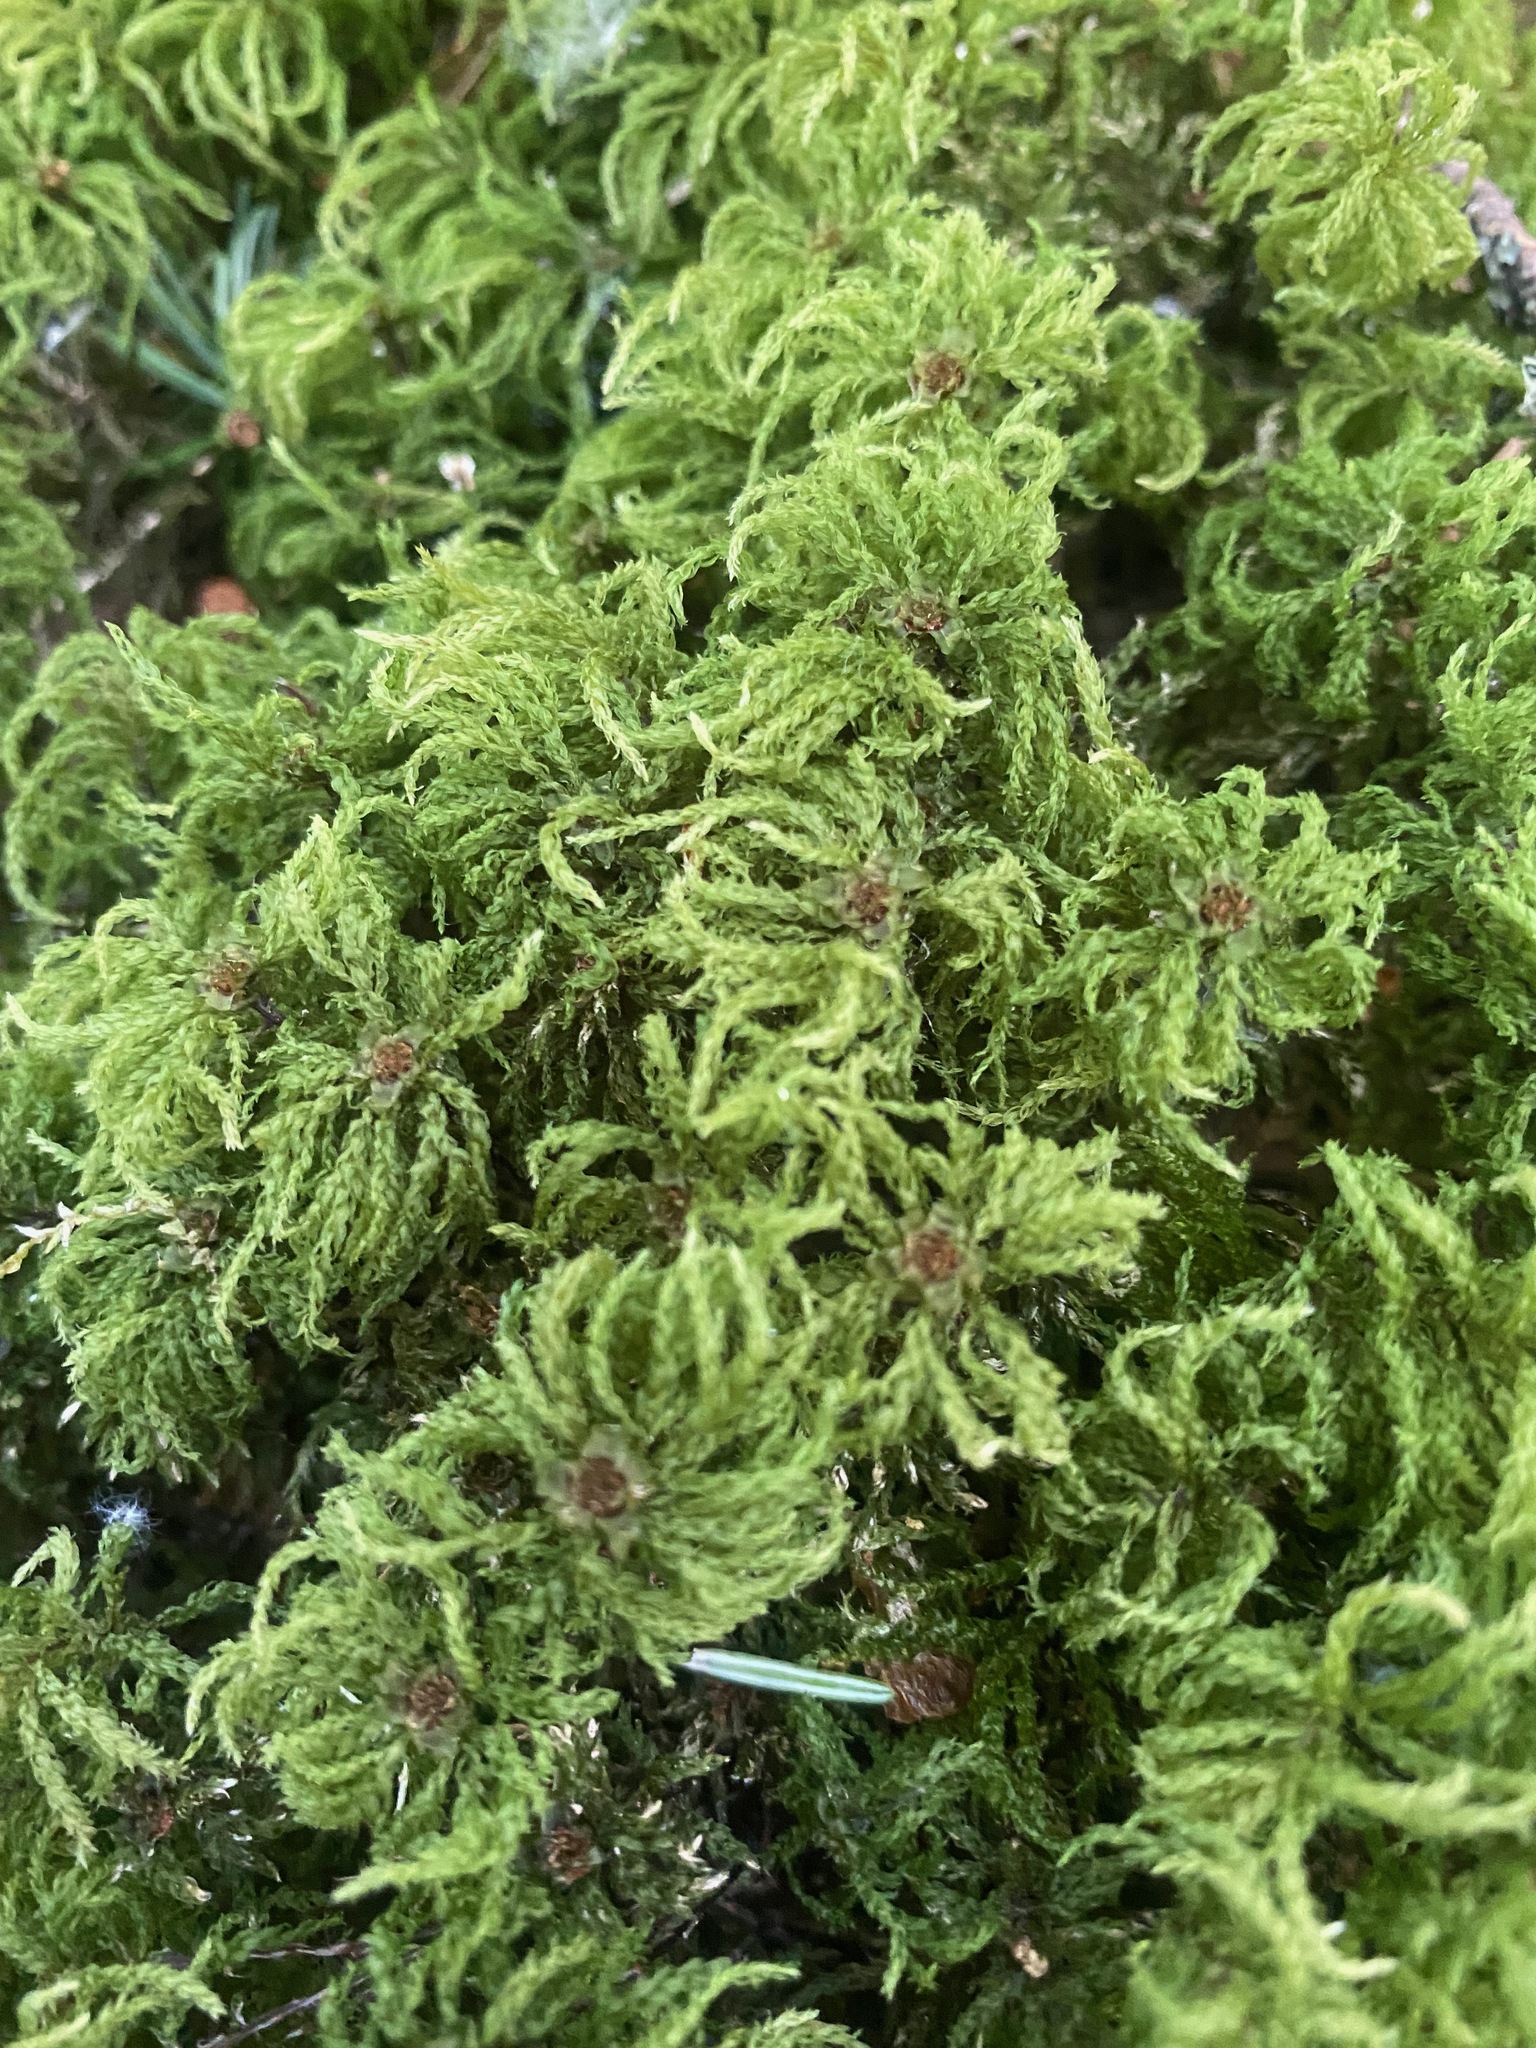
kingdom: Plantae
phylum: Bryophyta
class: Bryopsida
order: Bryales
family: Mniaceae
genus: Leucolepis
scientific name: Leucolepis acanthoneura
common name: Leucolepis umbrella moss
